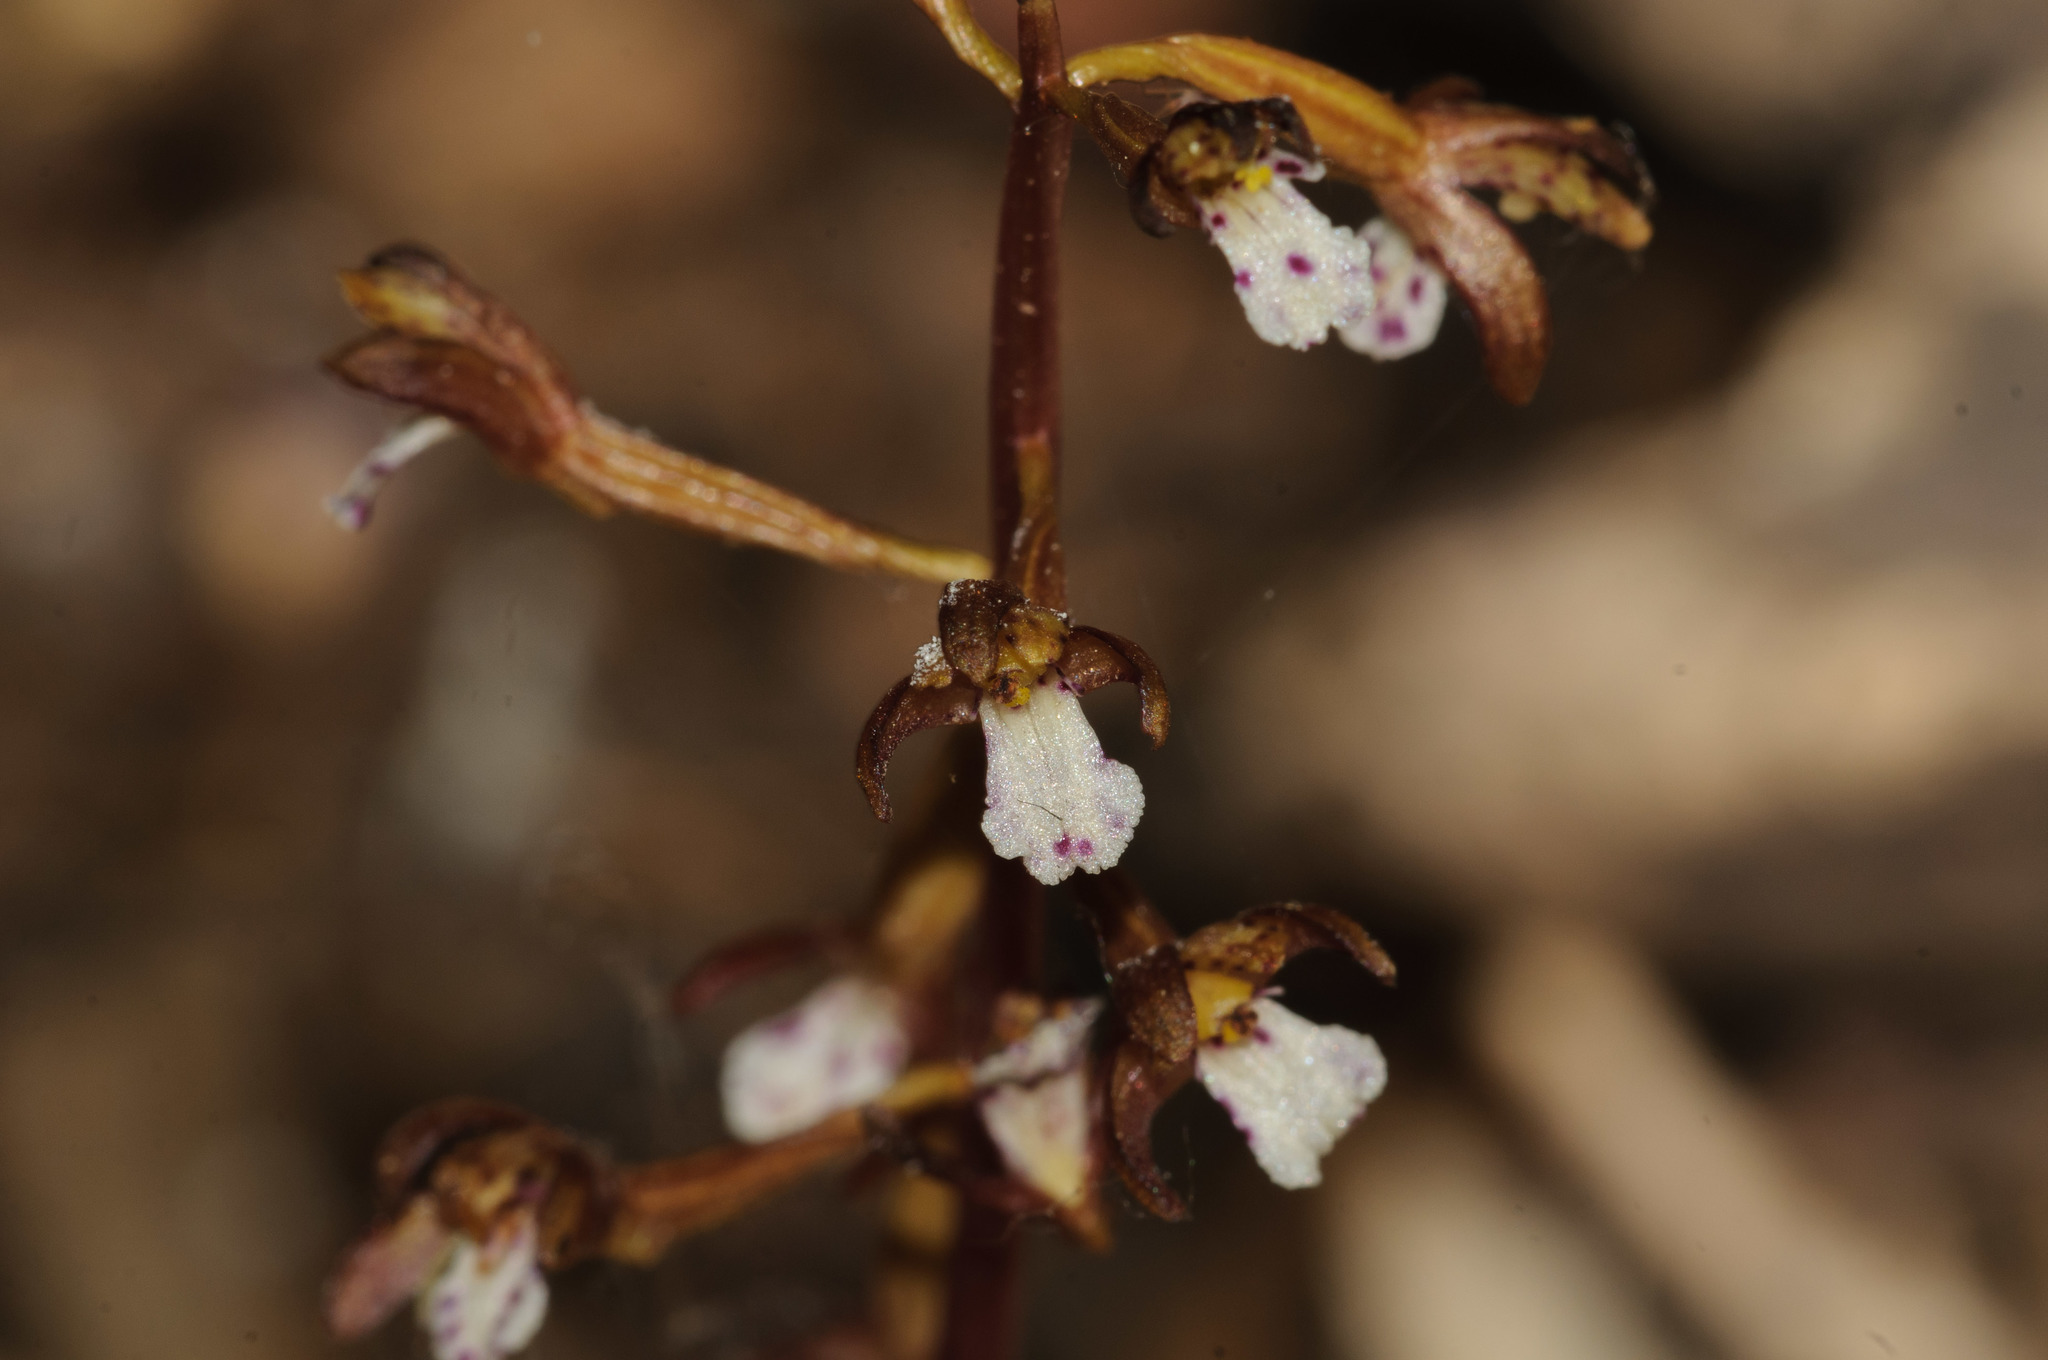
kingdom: Plantae
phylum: Tracheophyta
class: Liliopsida
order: Asparagales
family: Orchidaceae
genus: Corallorhiza
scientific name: Corallorhiza maculata
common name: Spotted coralroot
